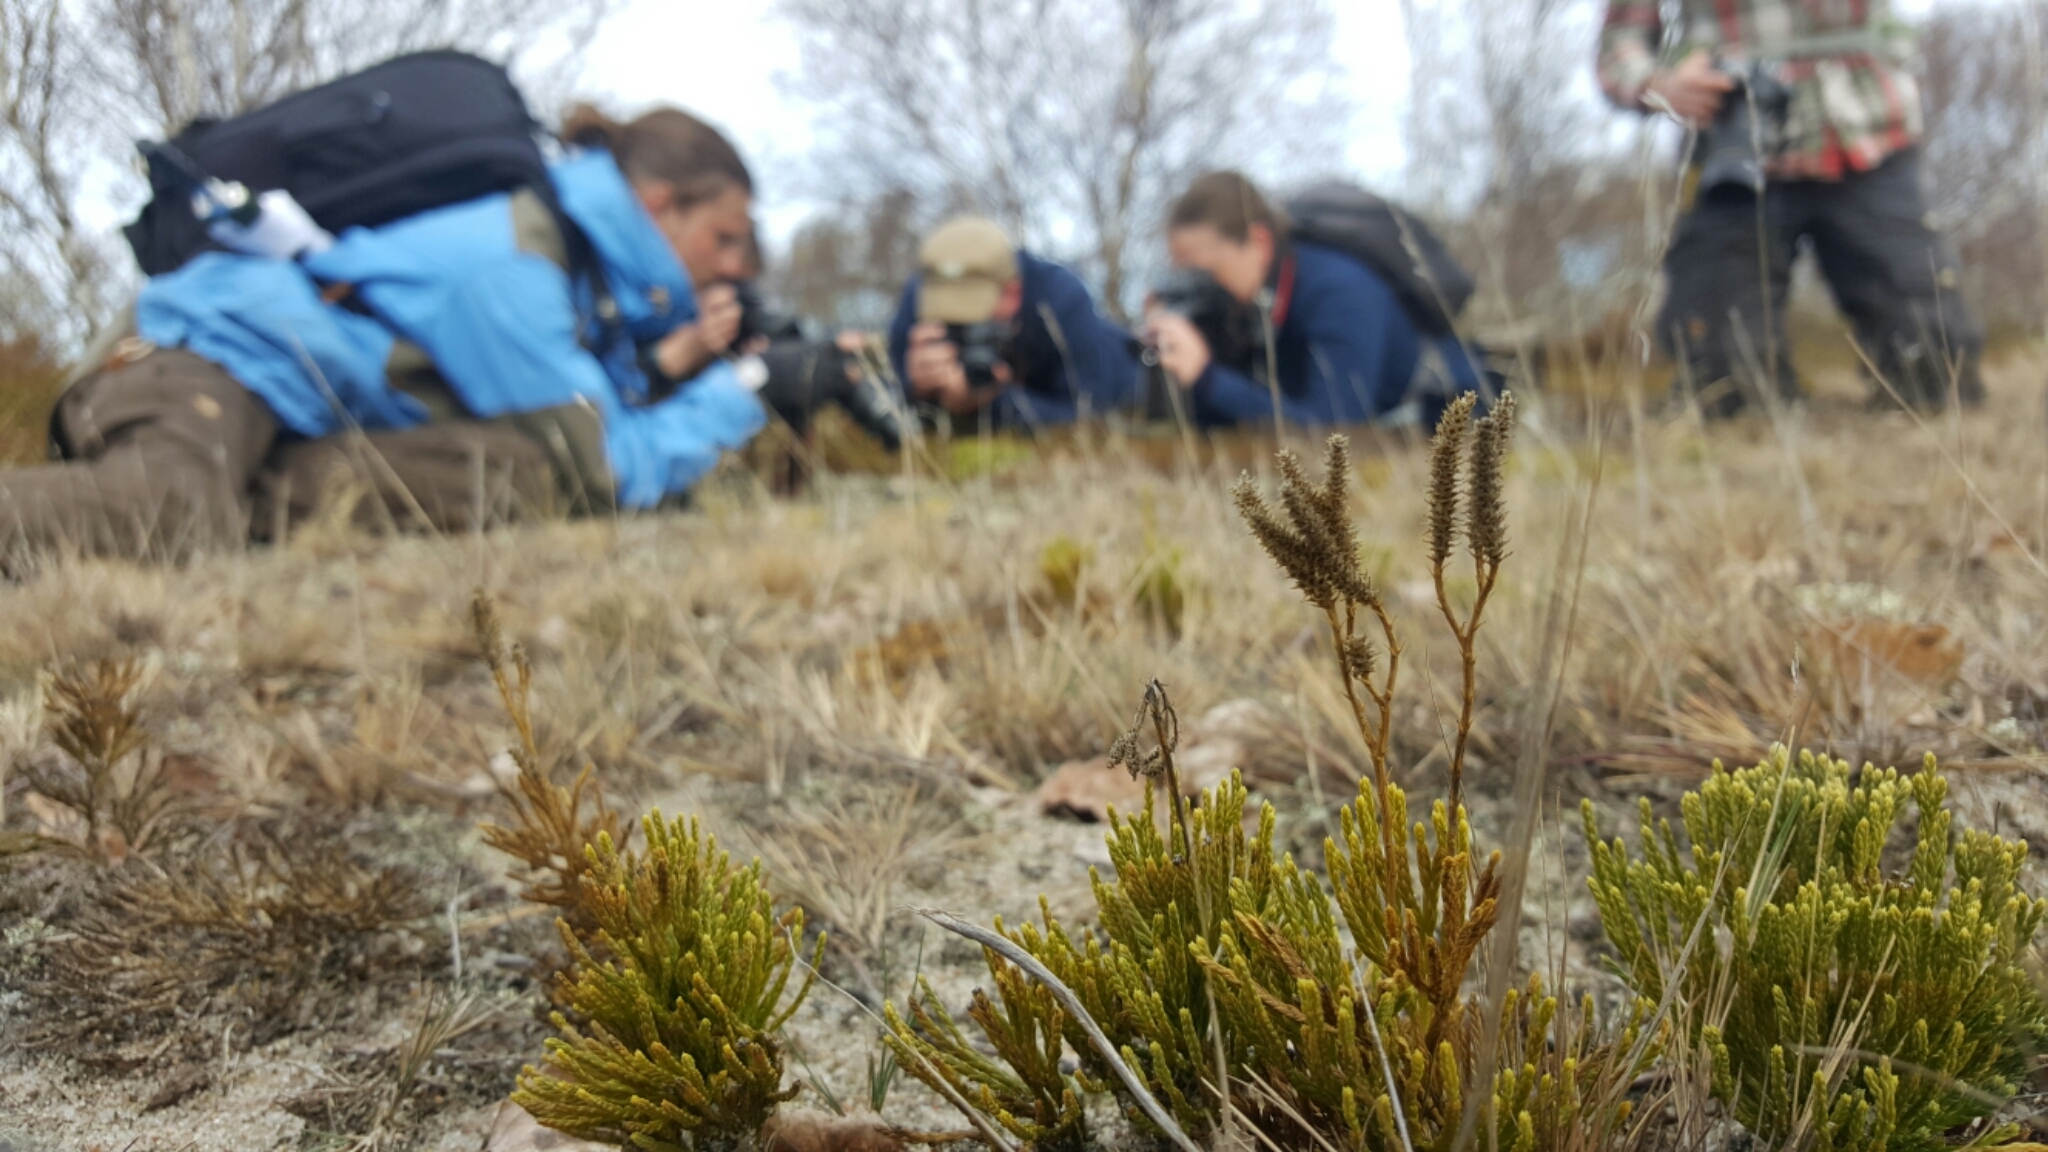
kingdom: Plantae
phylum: Tracheophyta
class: Lycopodiopsida
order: Lycopodiales
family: Lycopodiaceae
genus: Diphasiastrum
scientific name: Diphasiastrum tristachyum
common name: Blue ground-cedar
